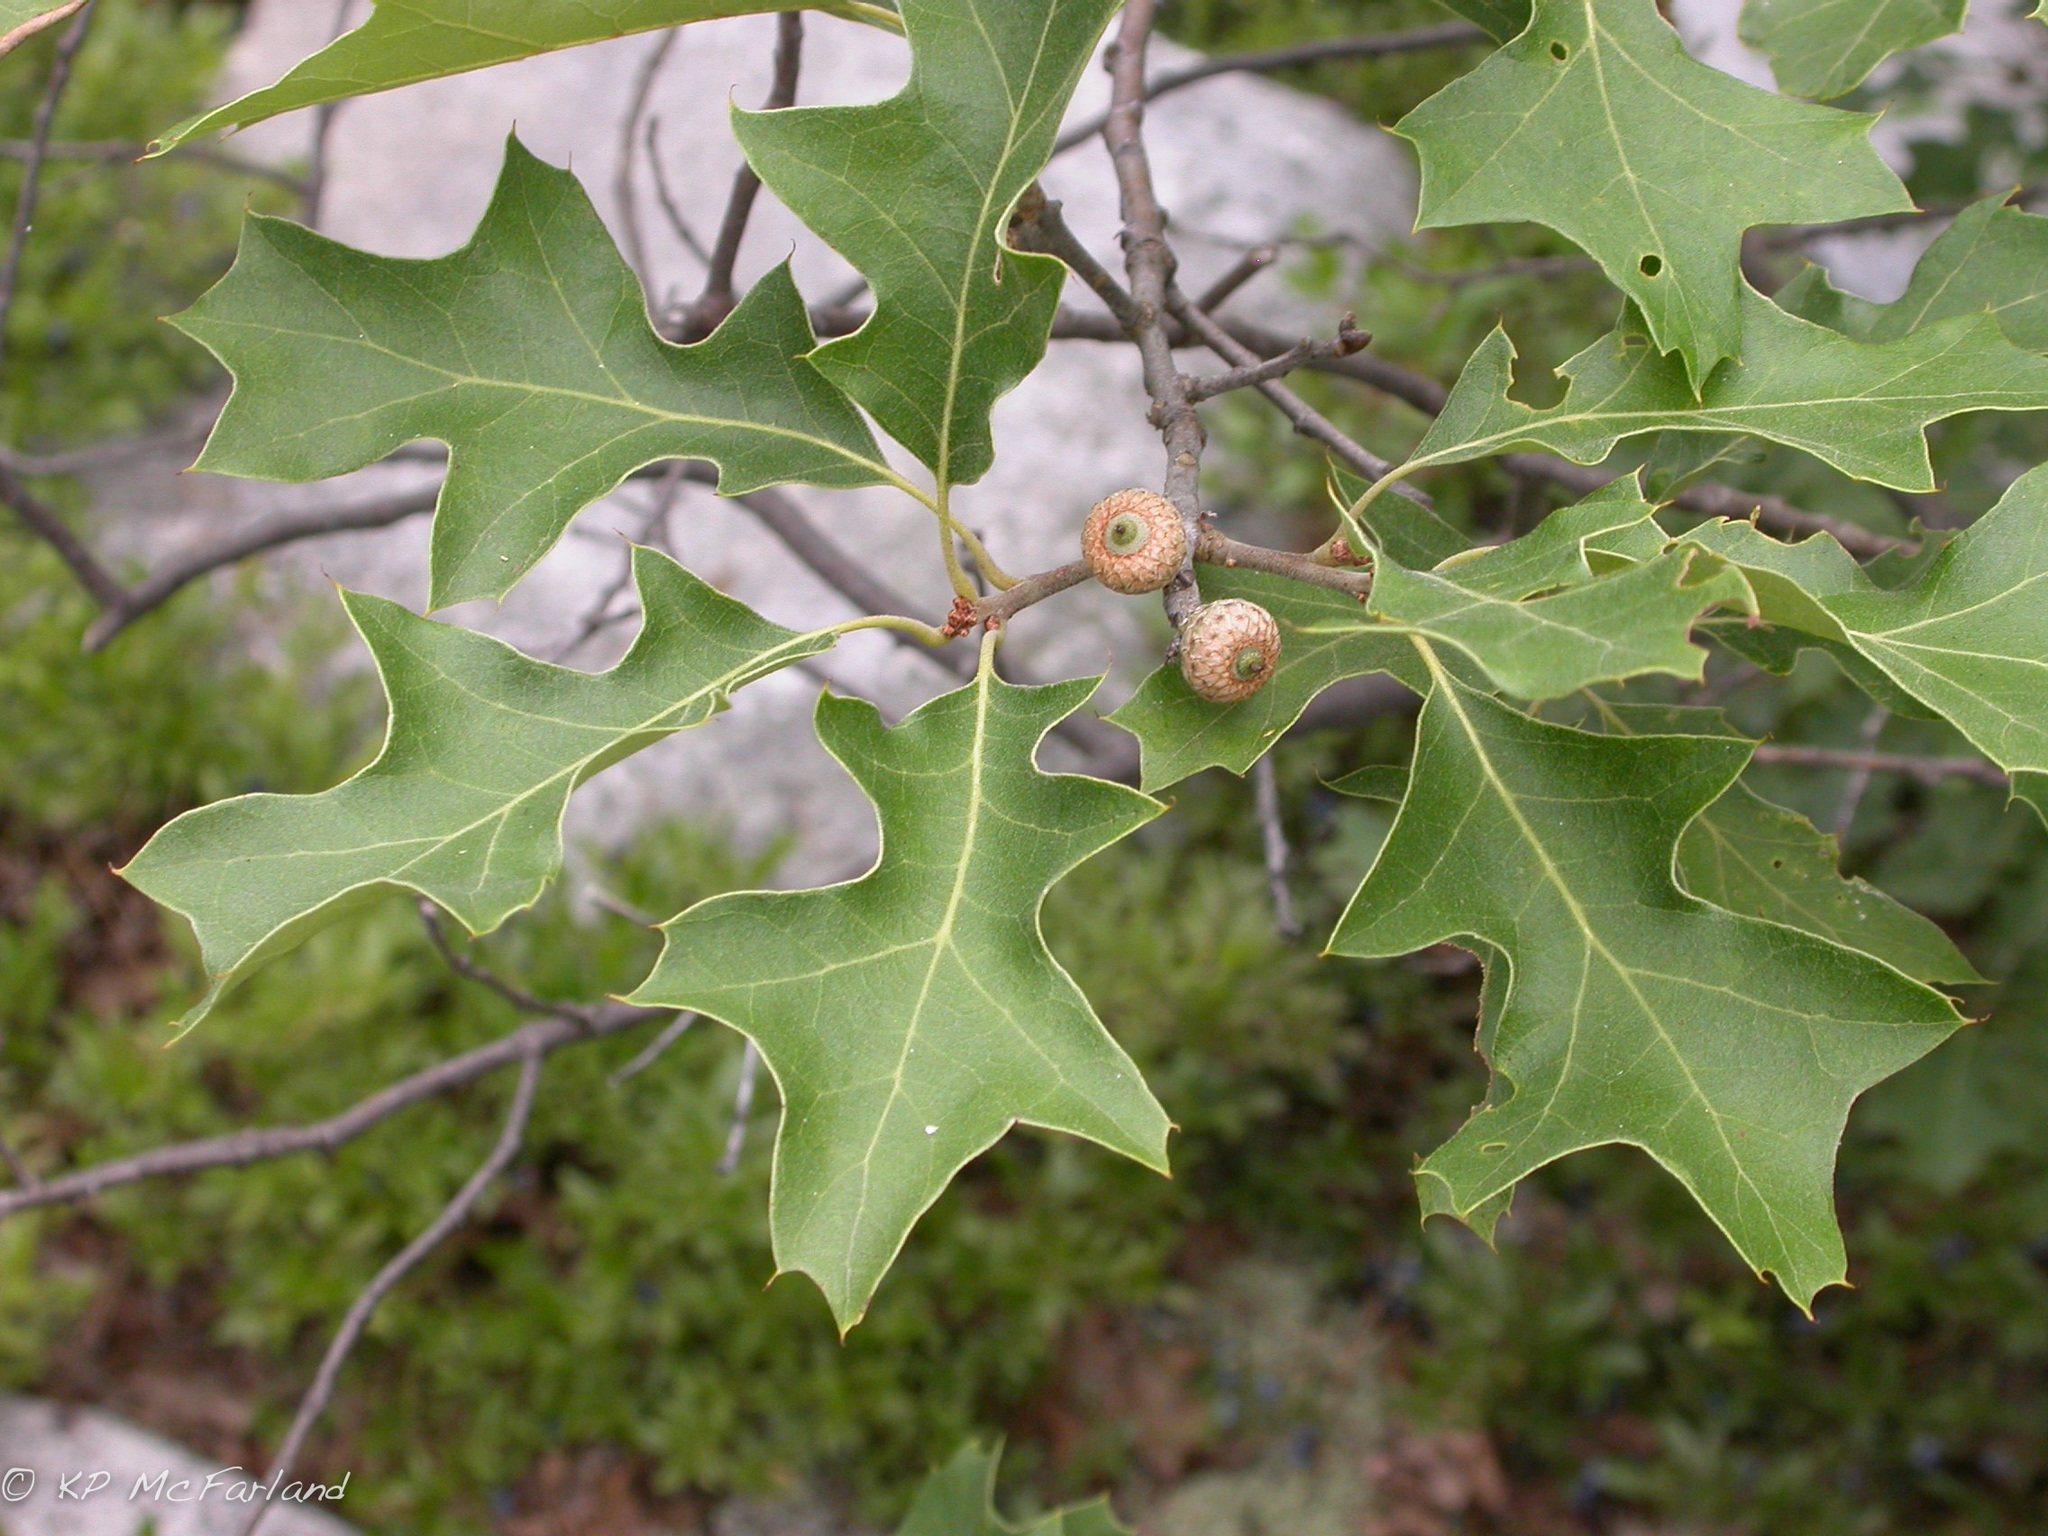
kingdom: Plantae
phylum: Tracheophyta
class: Magnoliopsida
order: Fagales
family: Fagaceae
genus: Quercus
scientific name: Quercus ilicifolia
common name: Bear oak
